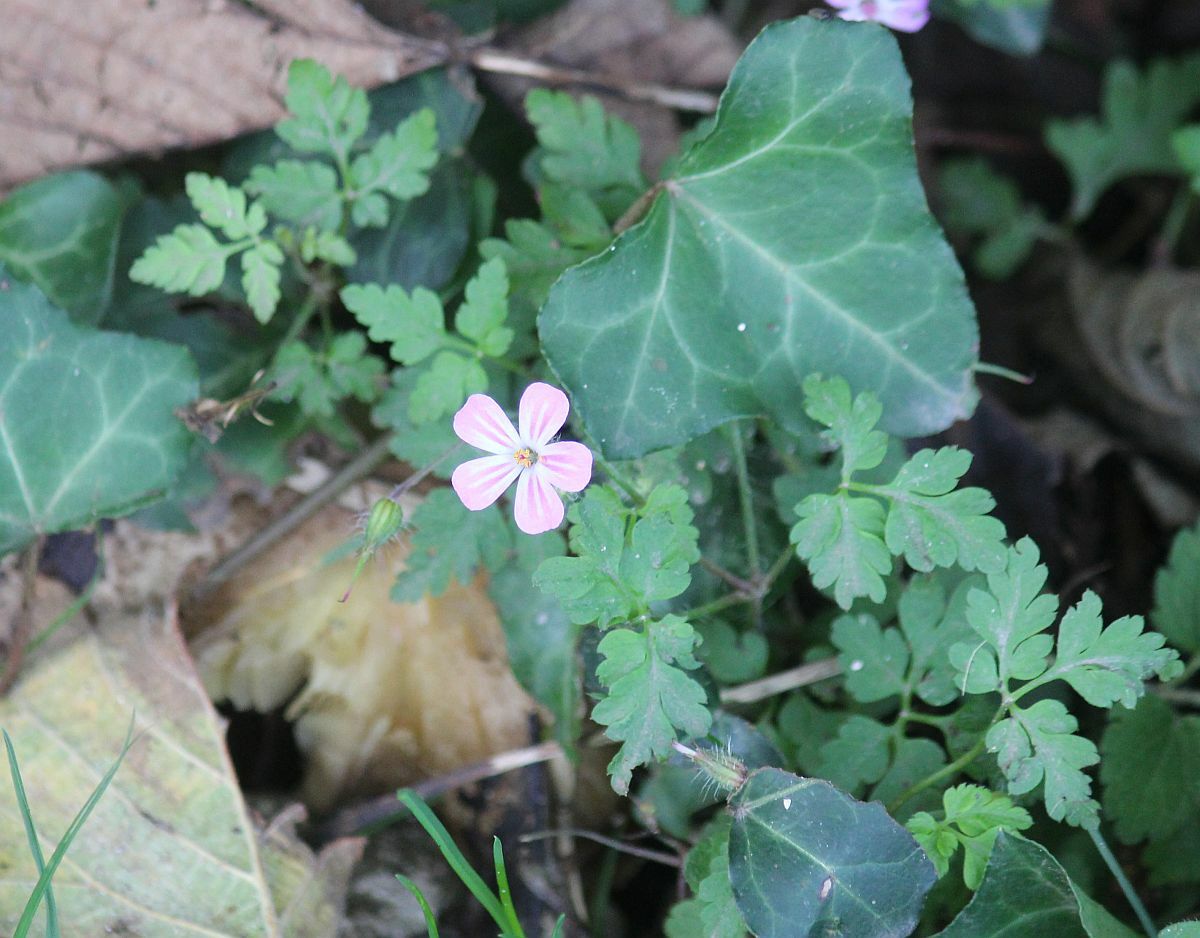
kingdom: Plantae
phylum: Tracheophyta
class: Magnoliopsida
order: Geraniales
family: Geraniaceae
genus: Geranium
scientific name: Geranium robertianum
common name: Herb-robert
